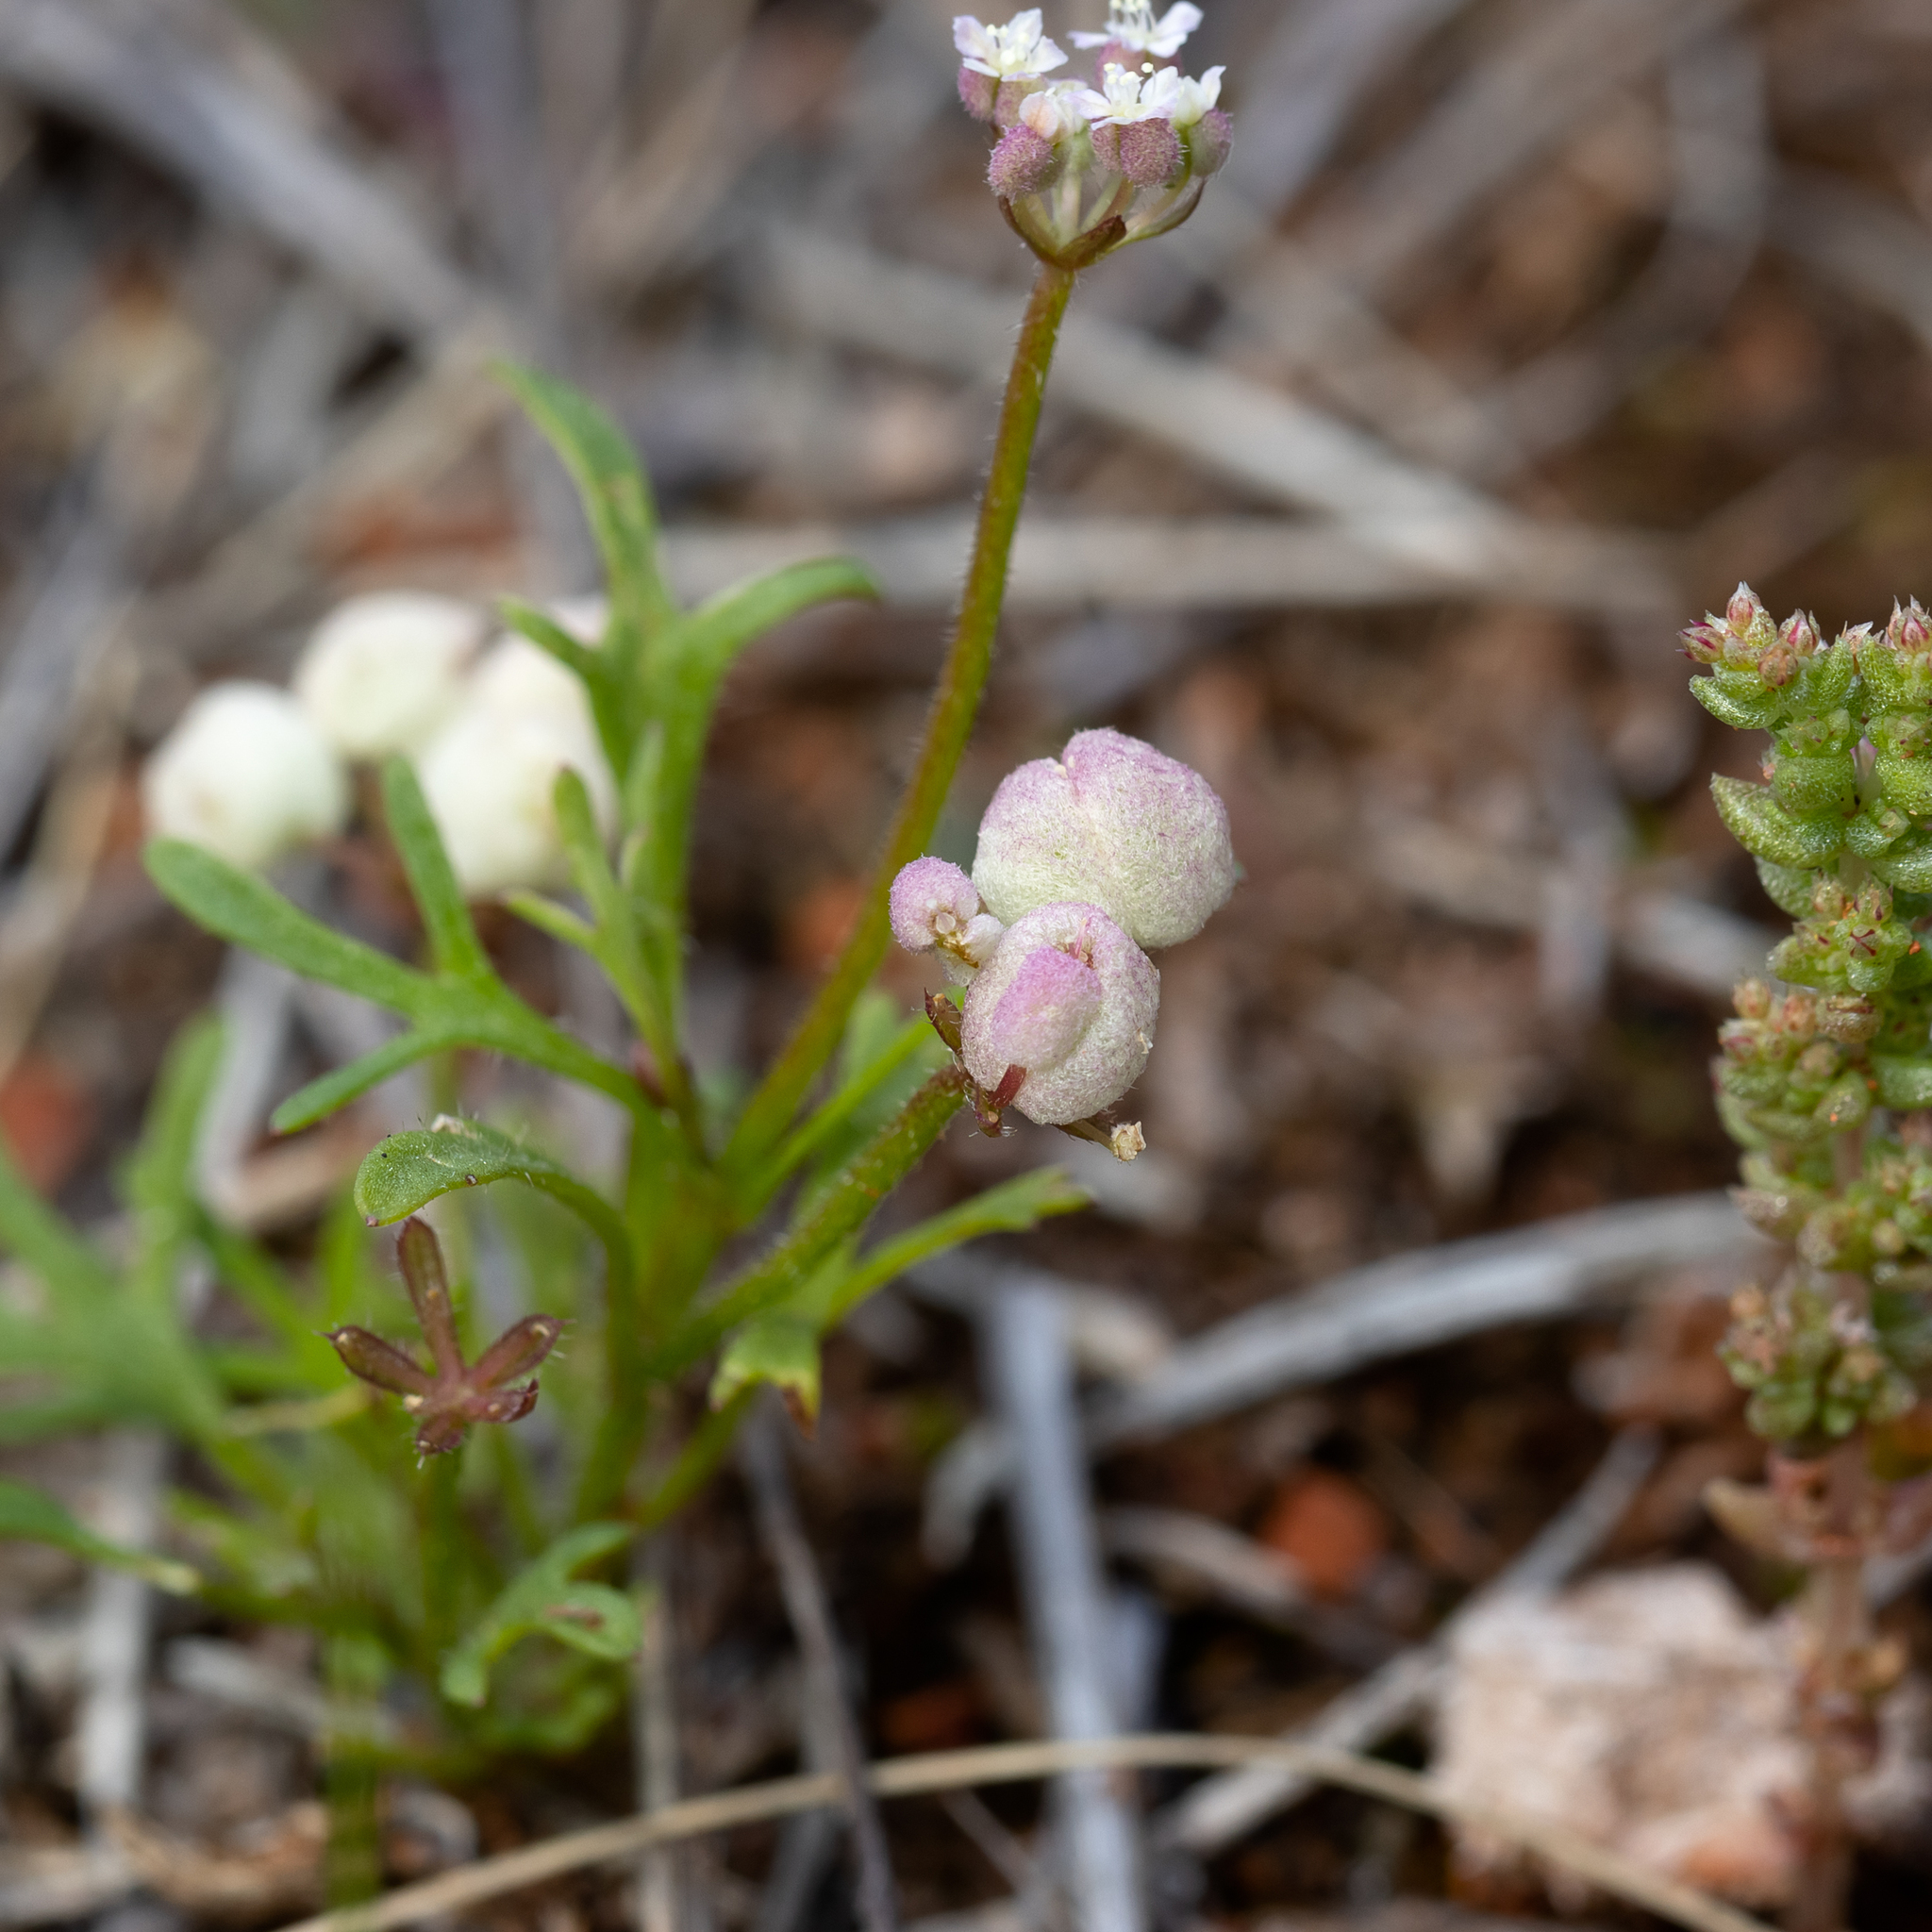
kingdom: Plantae
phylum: Tracheophyta
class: Magnoliopsida
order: Apiales
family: Araliaceae
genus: Trachymene
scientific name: Trachymene ornata
